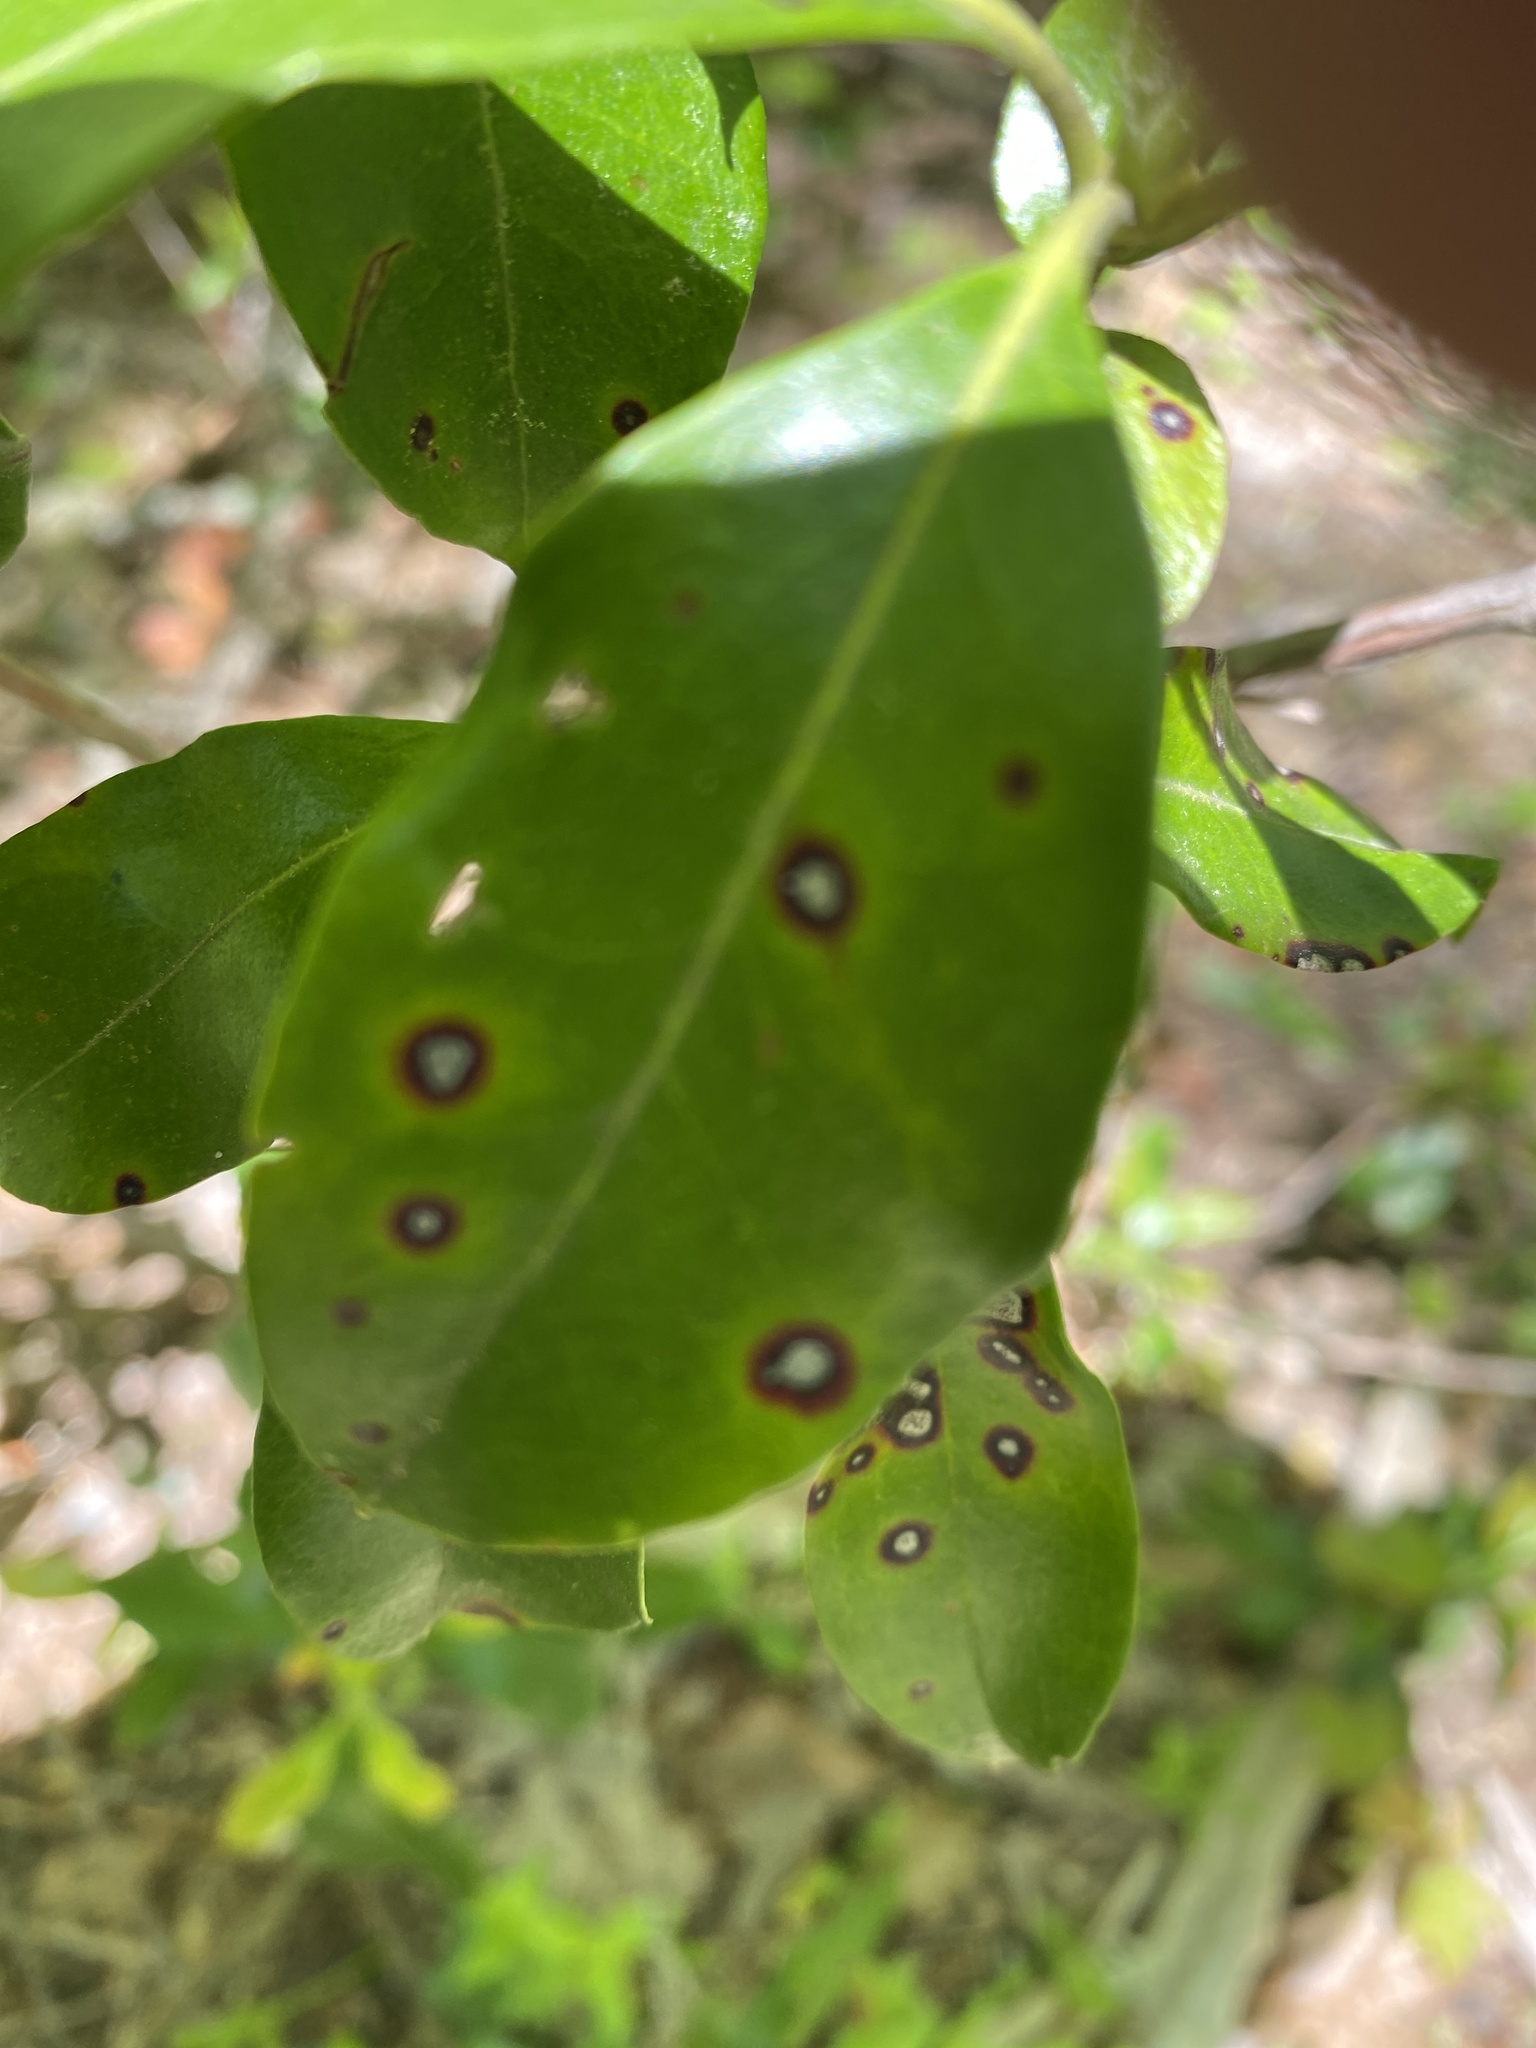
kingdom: Fungi
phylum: Ascomycota
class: Dothideomycetes
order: Mycosphaerellales
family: Mycosphaerellaceae
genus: Mycosphaerella
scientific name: Mycosphaerella colorata
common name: Mountain laurel leaf spot
